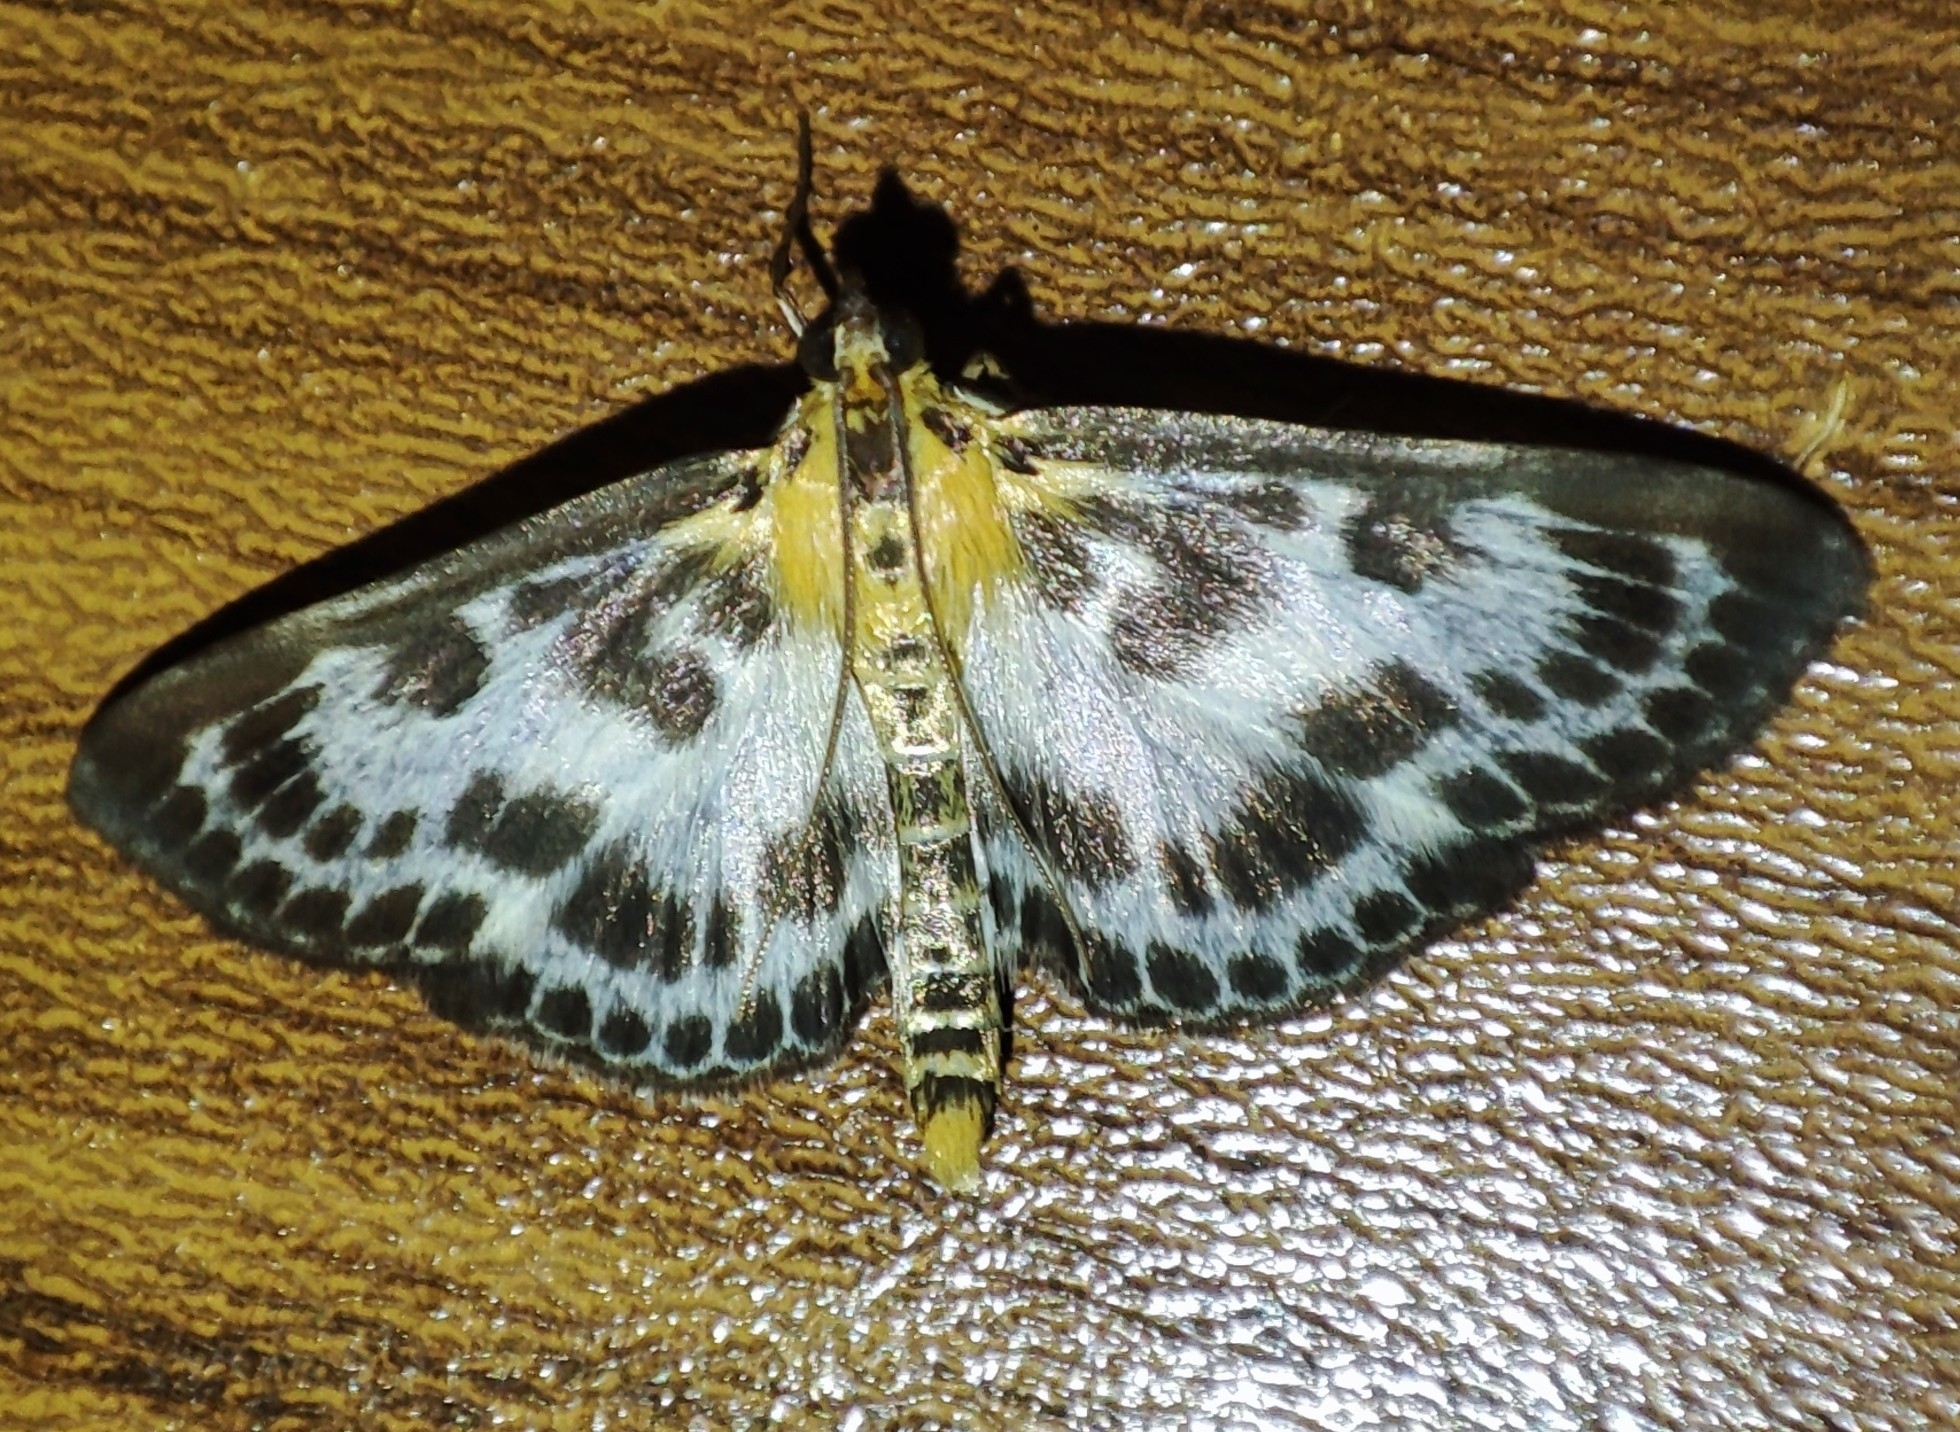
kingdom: Animalia
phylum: Arthropoda
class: Insecta
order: Lepidoptera
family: Crambidae
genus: Anania
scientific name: Anania hortulata
